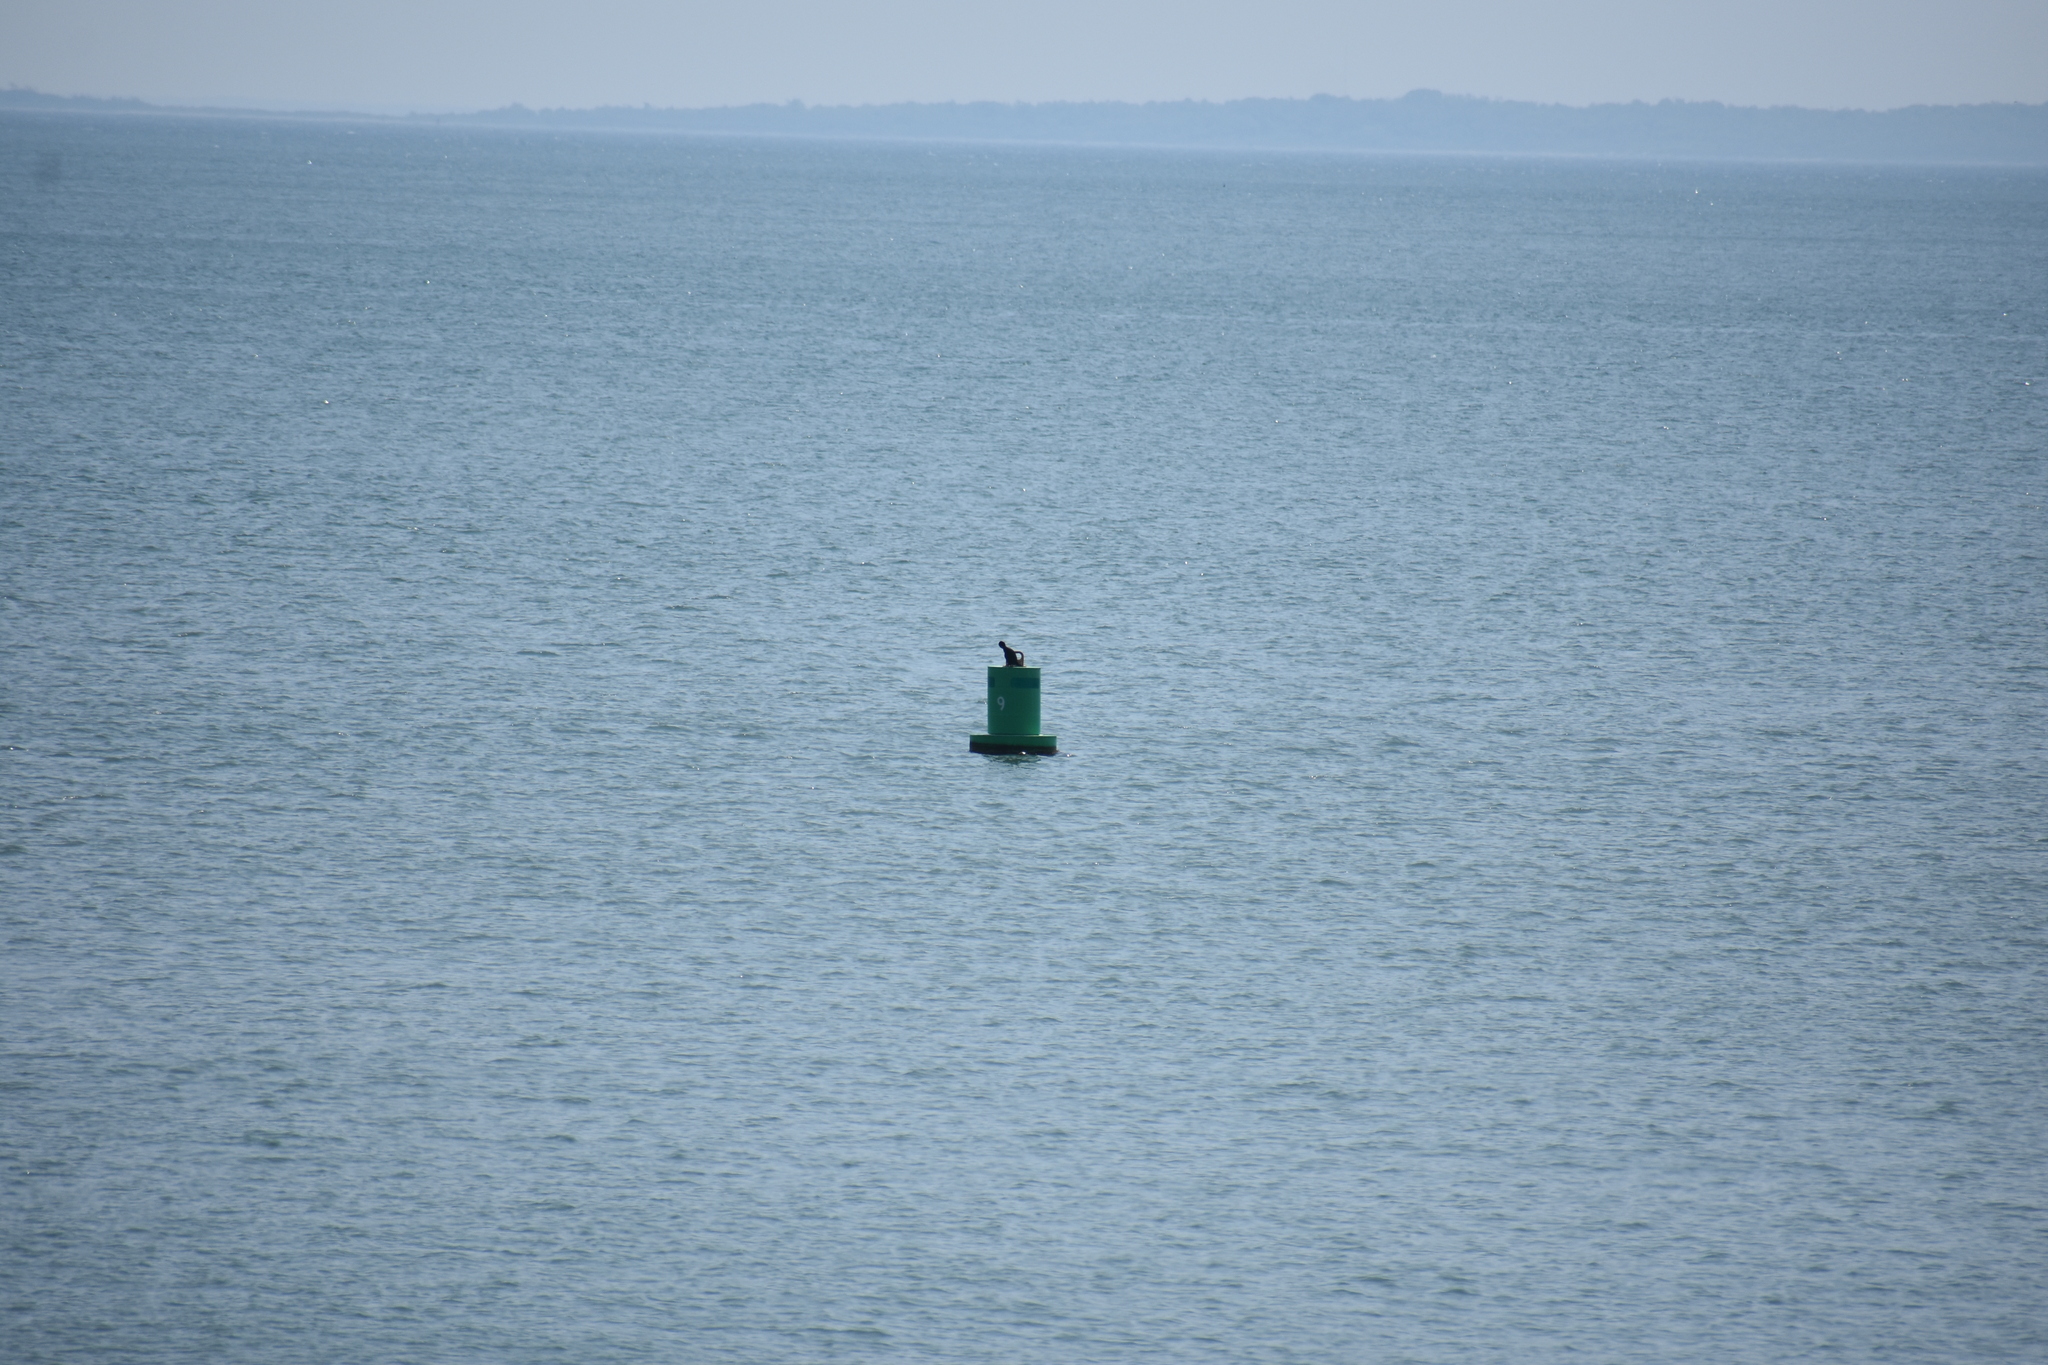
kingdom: Animalia
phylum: Chordata
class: Aves
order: Suliformes
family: Phalacrocoracidae
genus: Phalacrocorax
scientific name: Phalacrocorax auritus
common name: Double-crested cormorant
